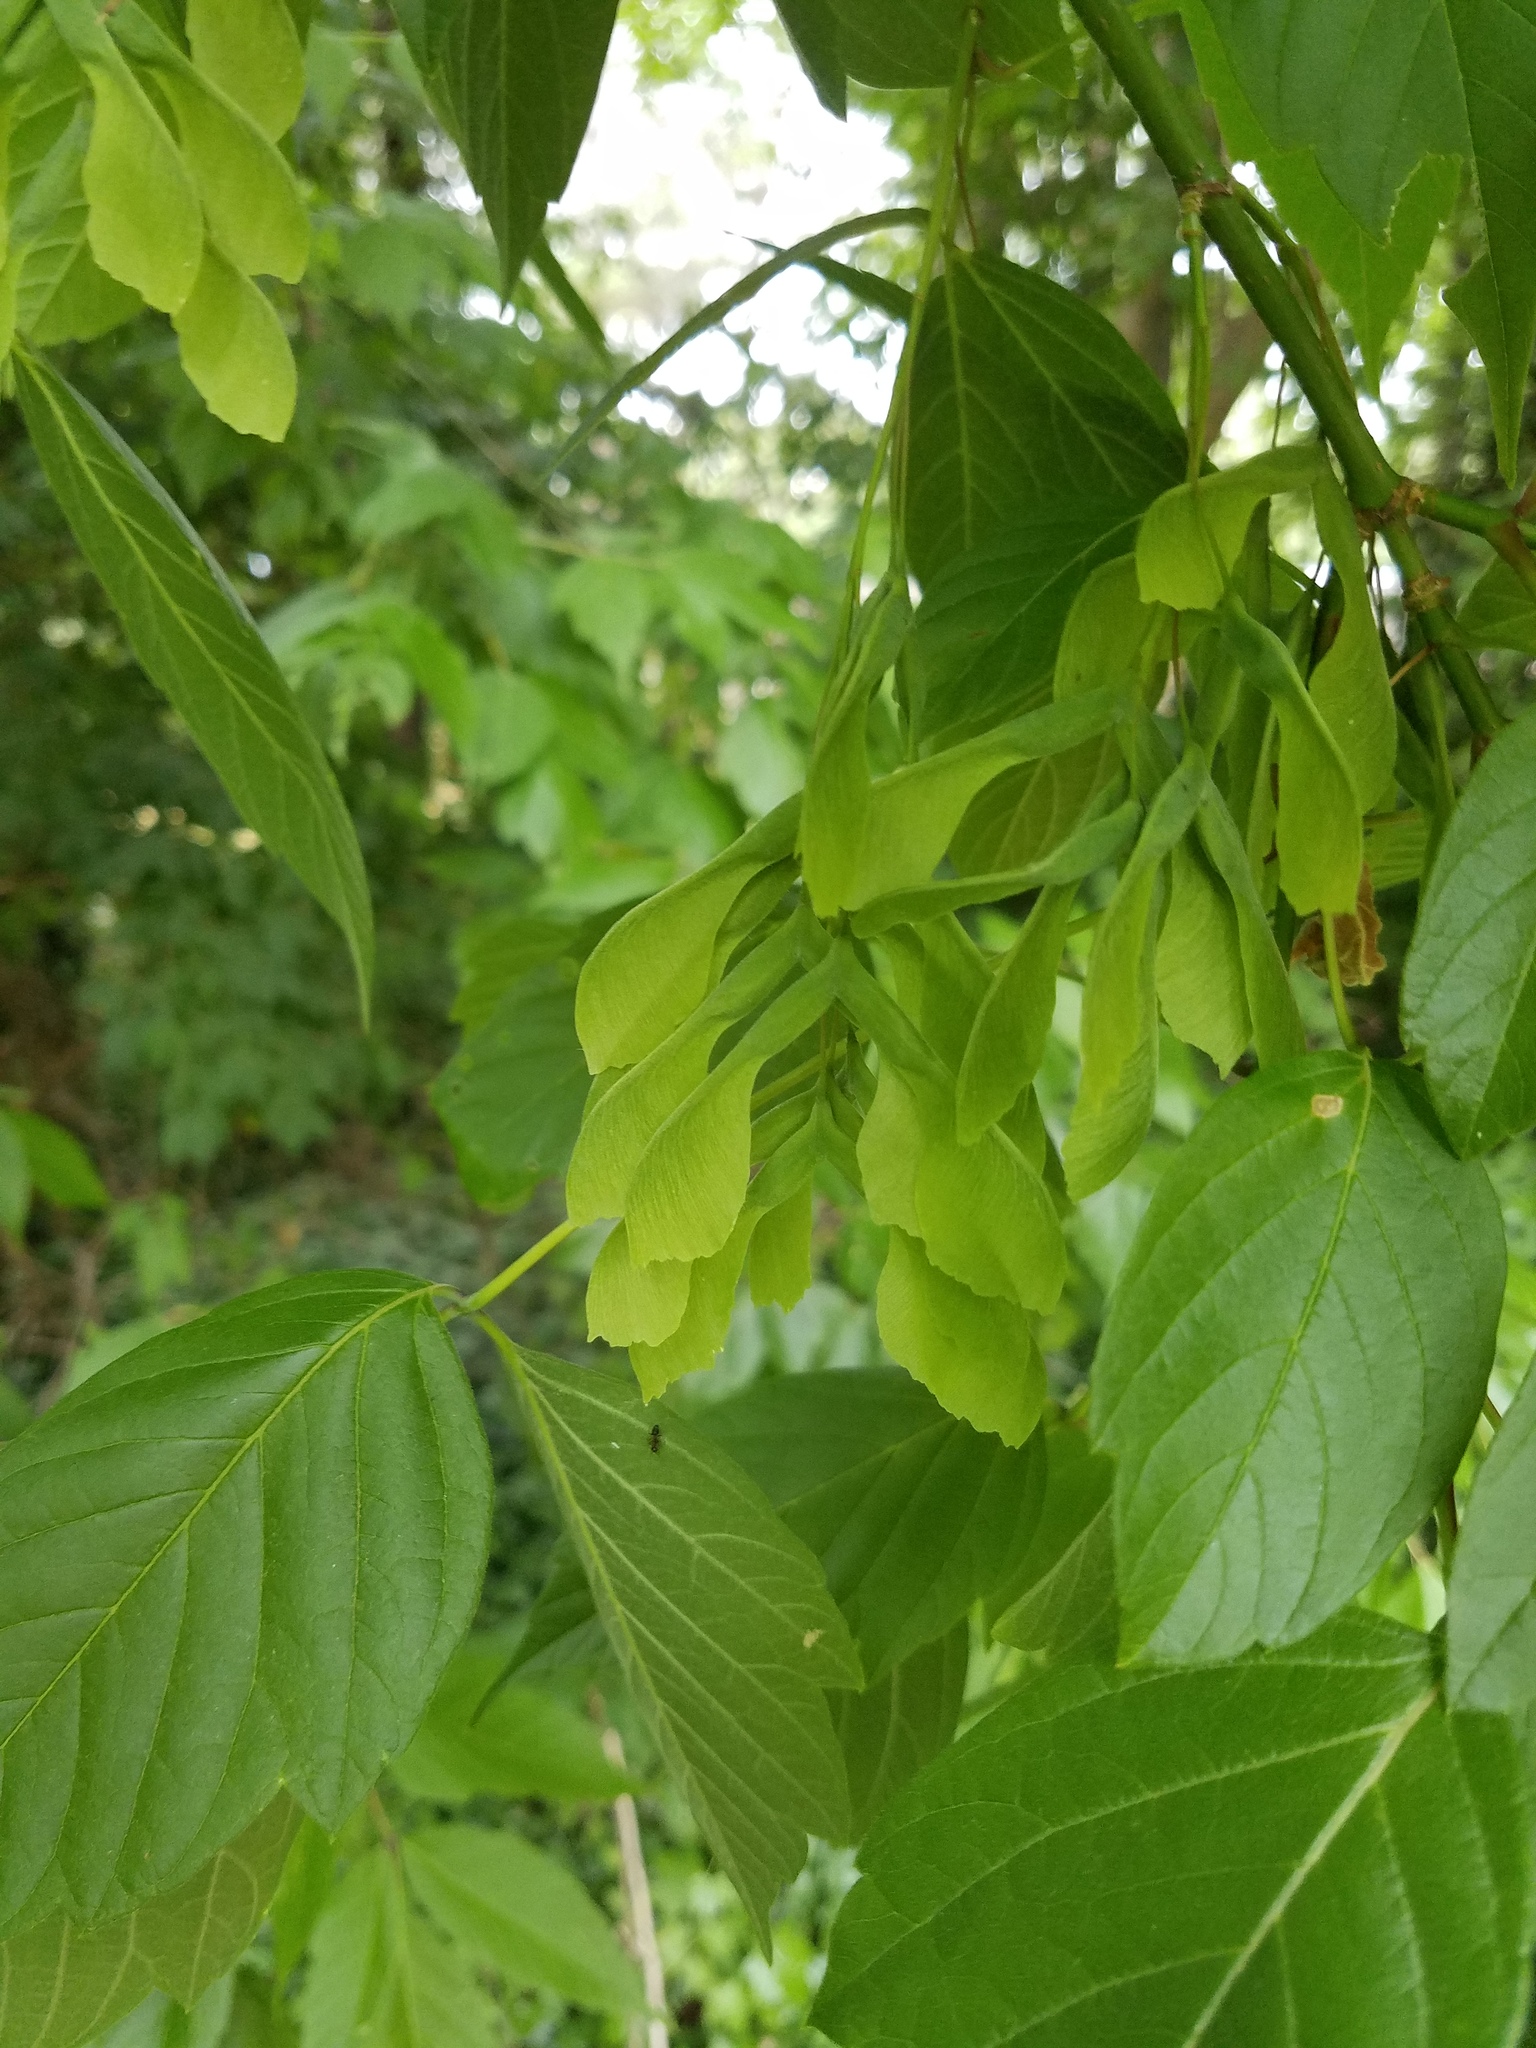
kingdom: Plantae
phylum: Tracheophyta
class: Magnoliopsida
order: Sapindales
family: Sapindaceae
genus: Acer
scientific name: Acer negundo
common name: Ashleaf maple
